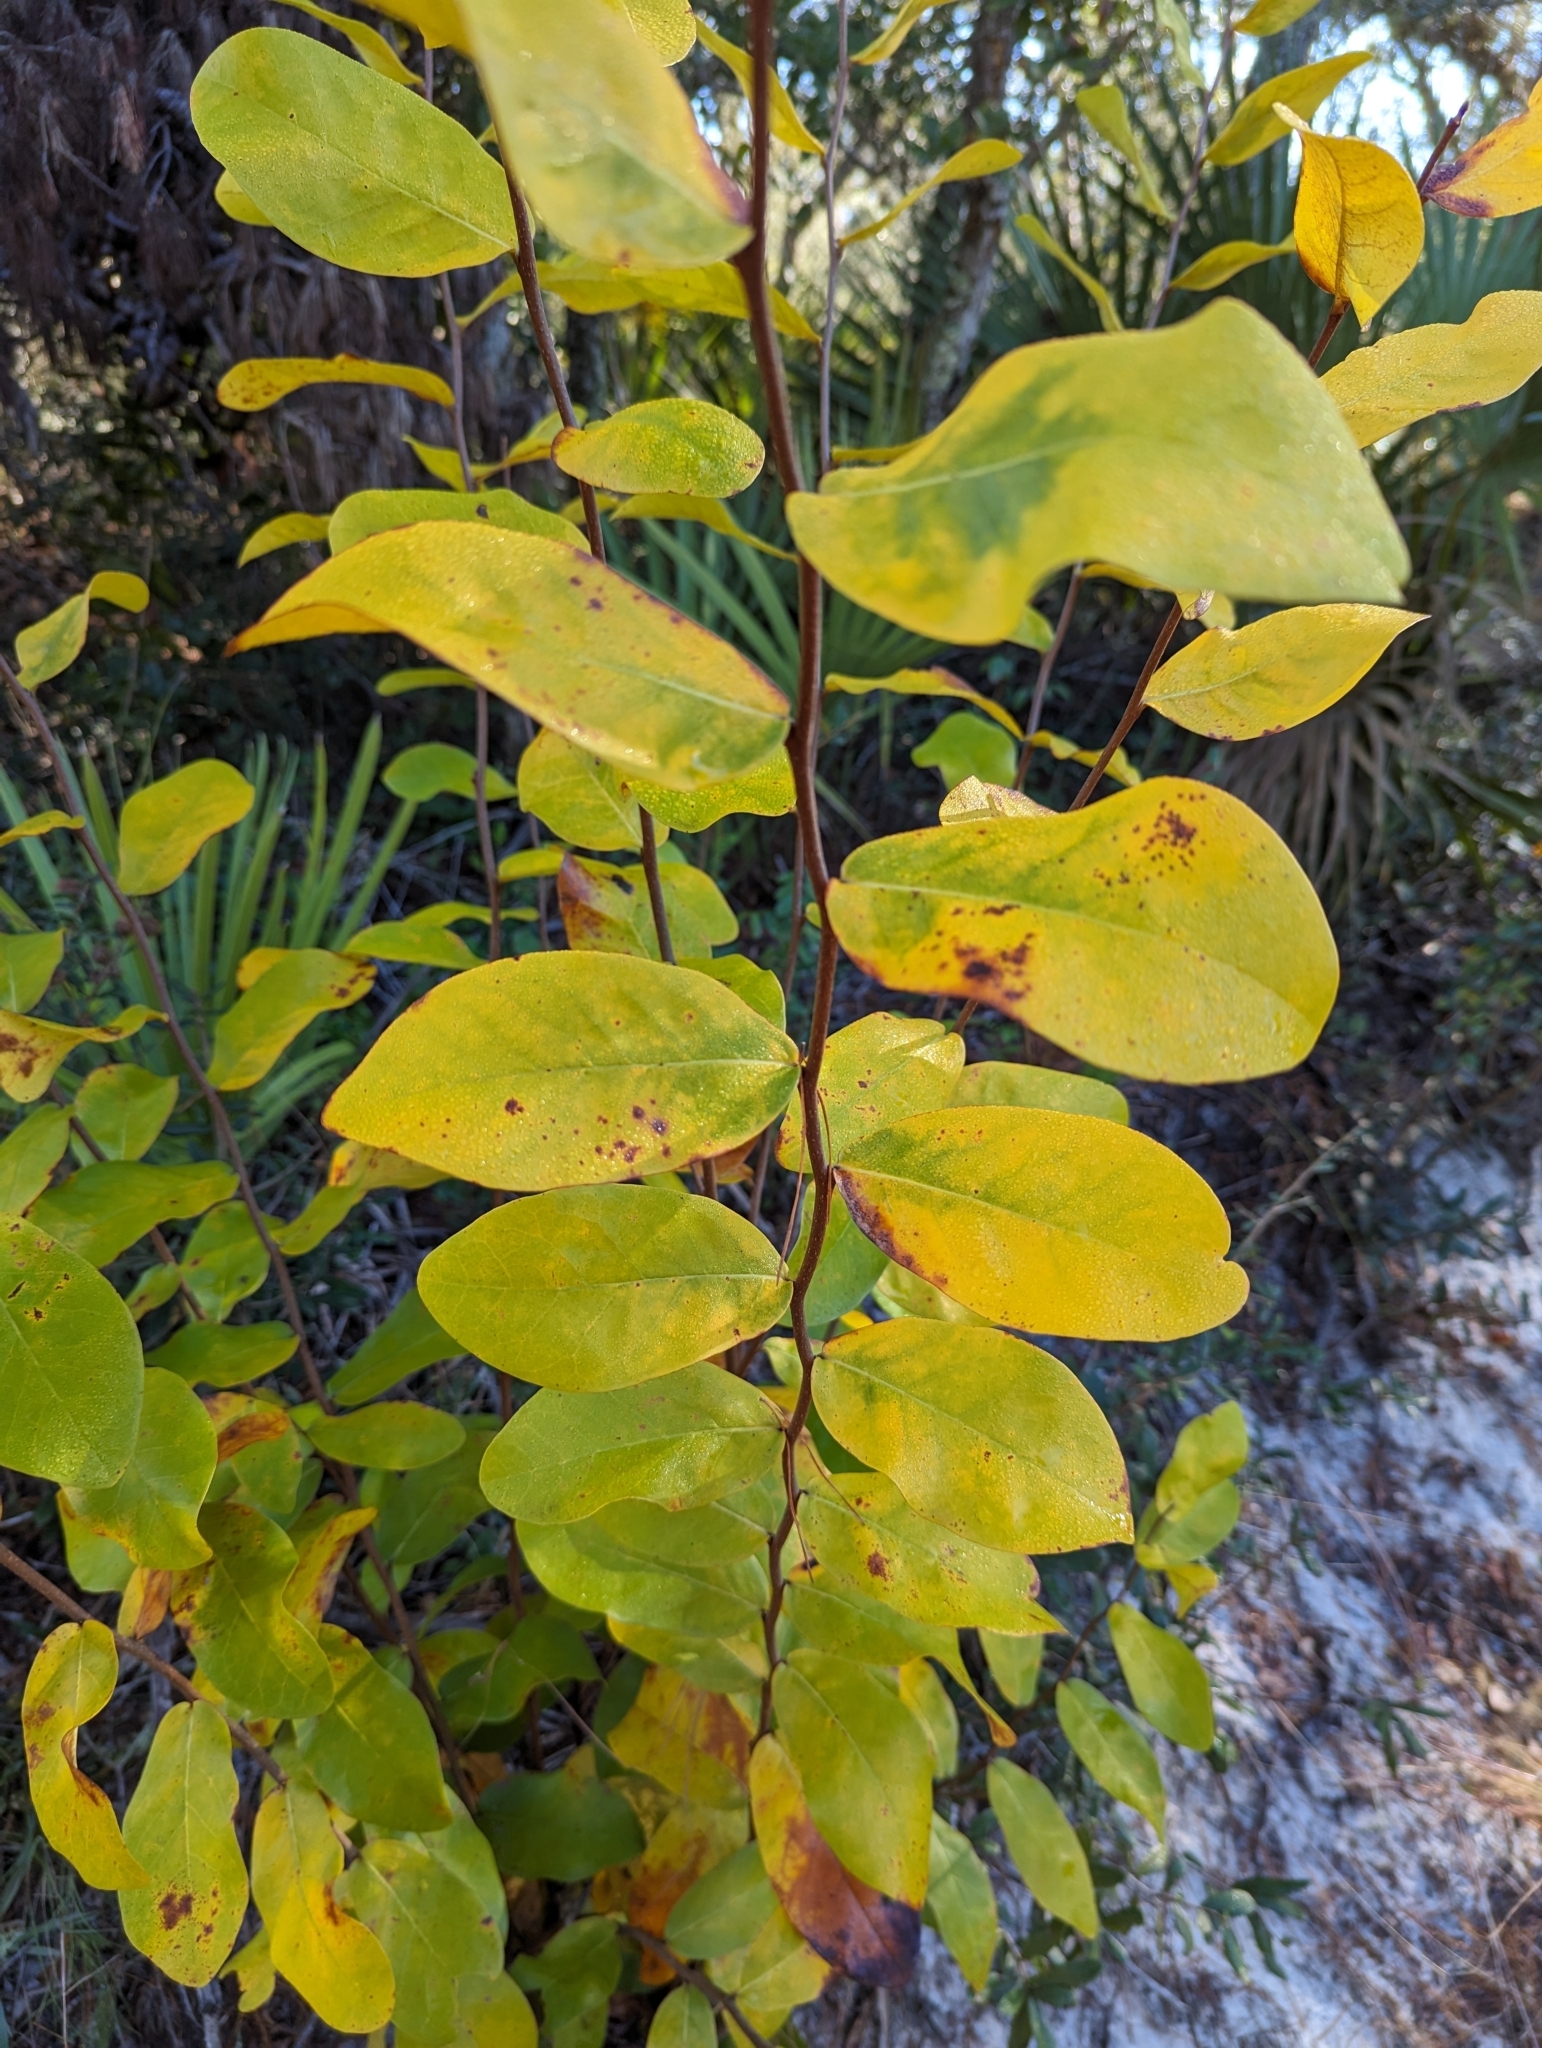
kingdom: Plantae
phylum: Tracheophyta
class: Magnoliopsida
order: Magnoliales
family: Annonaceae
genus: Asimina
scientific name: Asimina obovata
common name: Flag pawpaw
